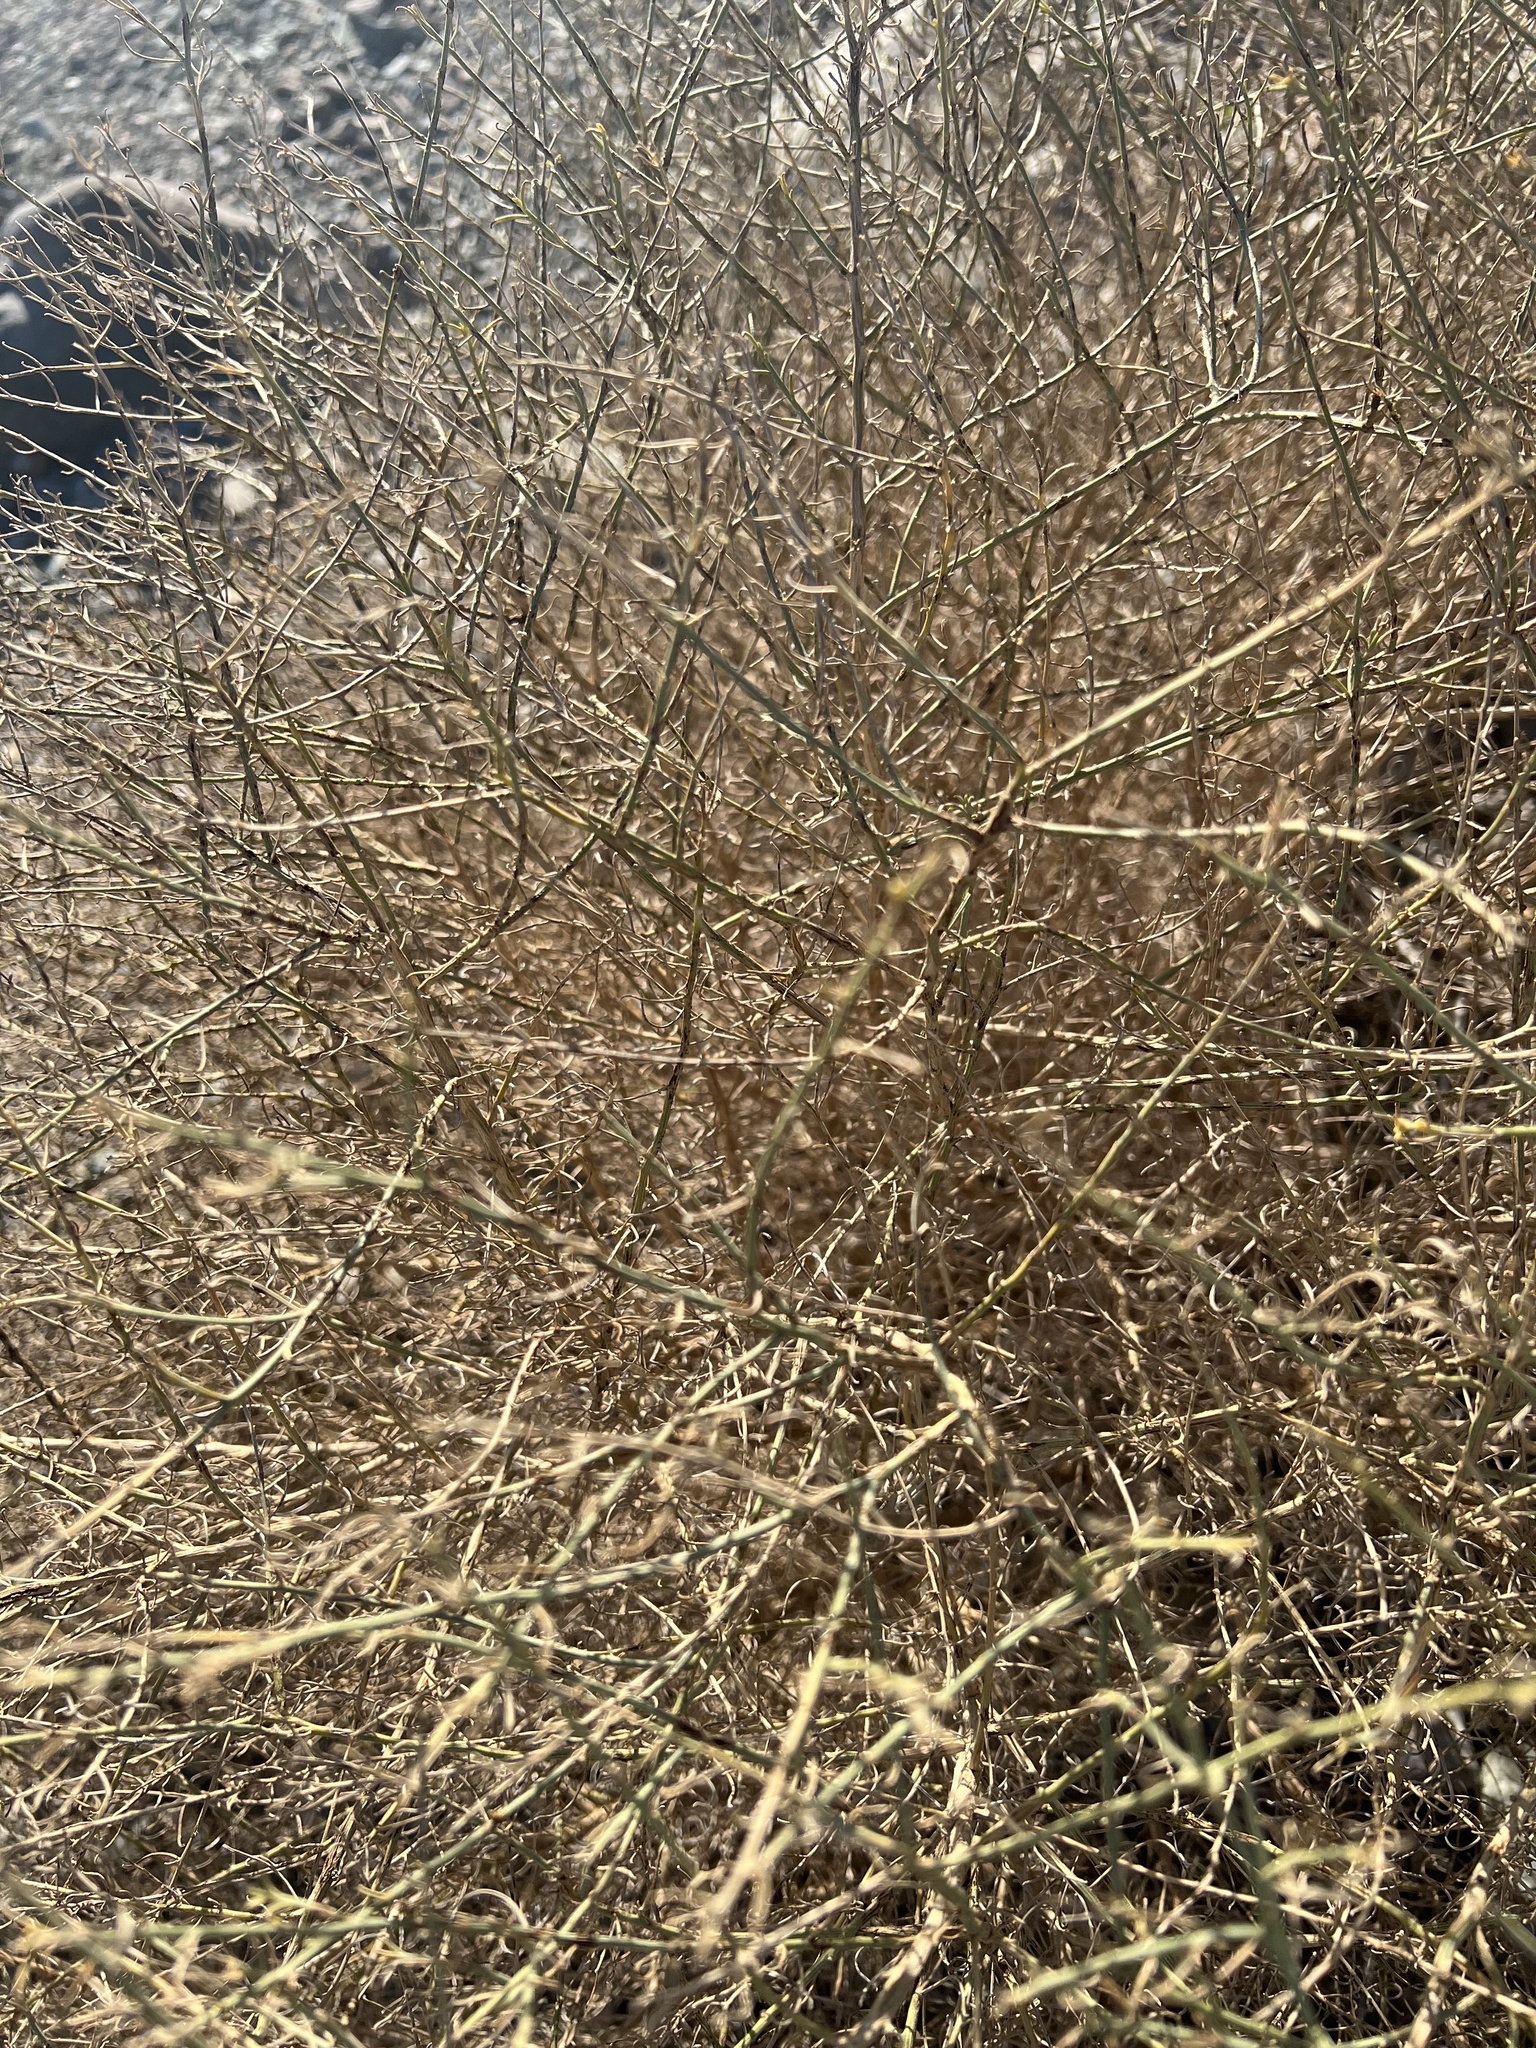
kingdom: Plantae
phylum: Tracheophyta
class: Magnoliopsida
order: Asterales
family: Asteraceae
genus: Ambrosia
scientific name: Ambrosia salsola
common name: Burrobrush
